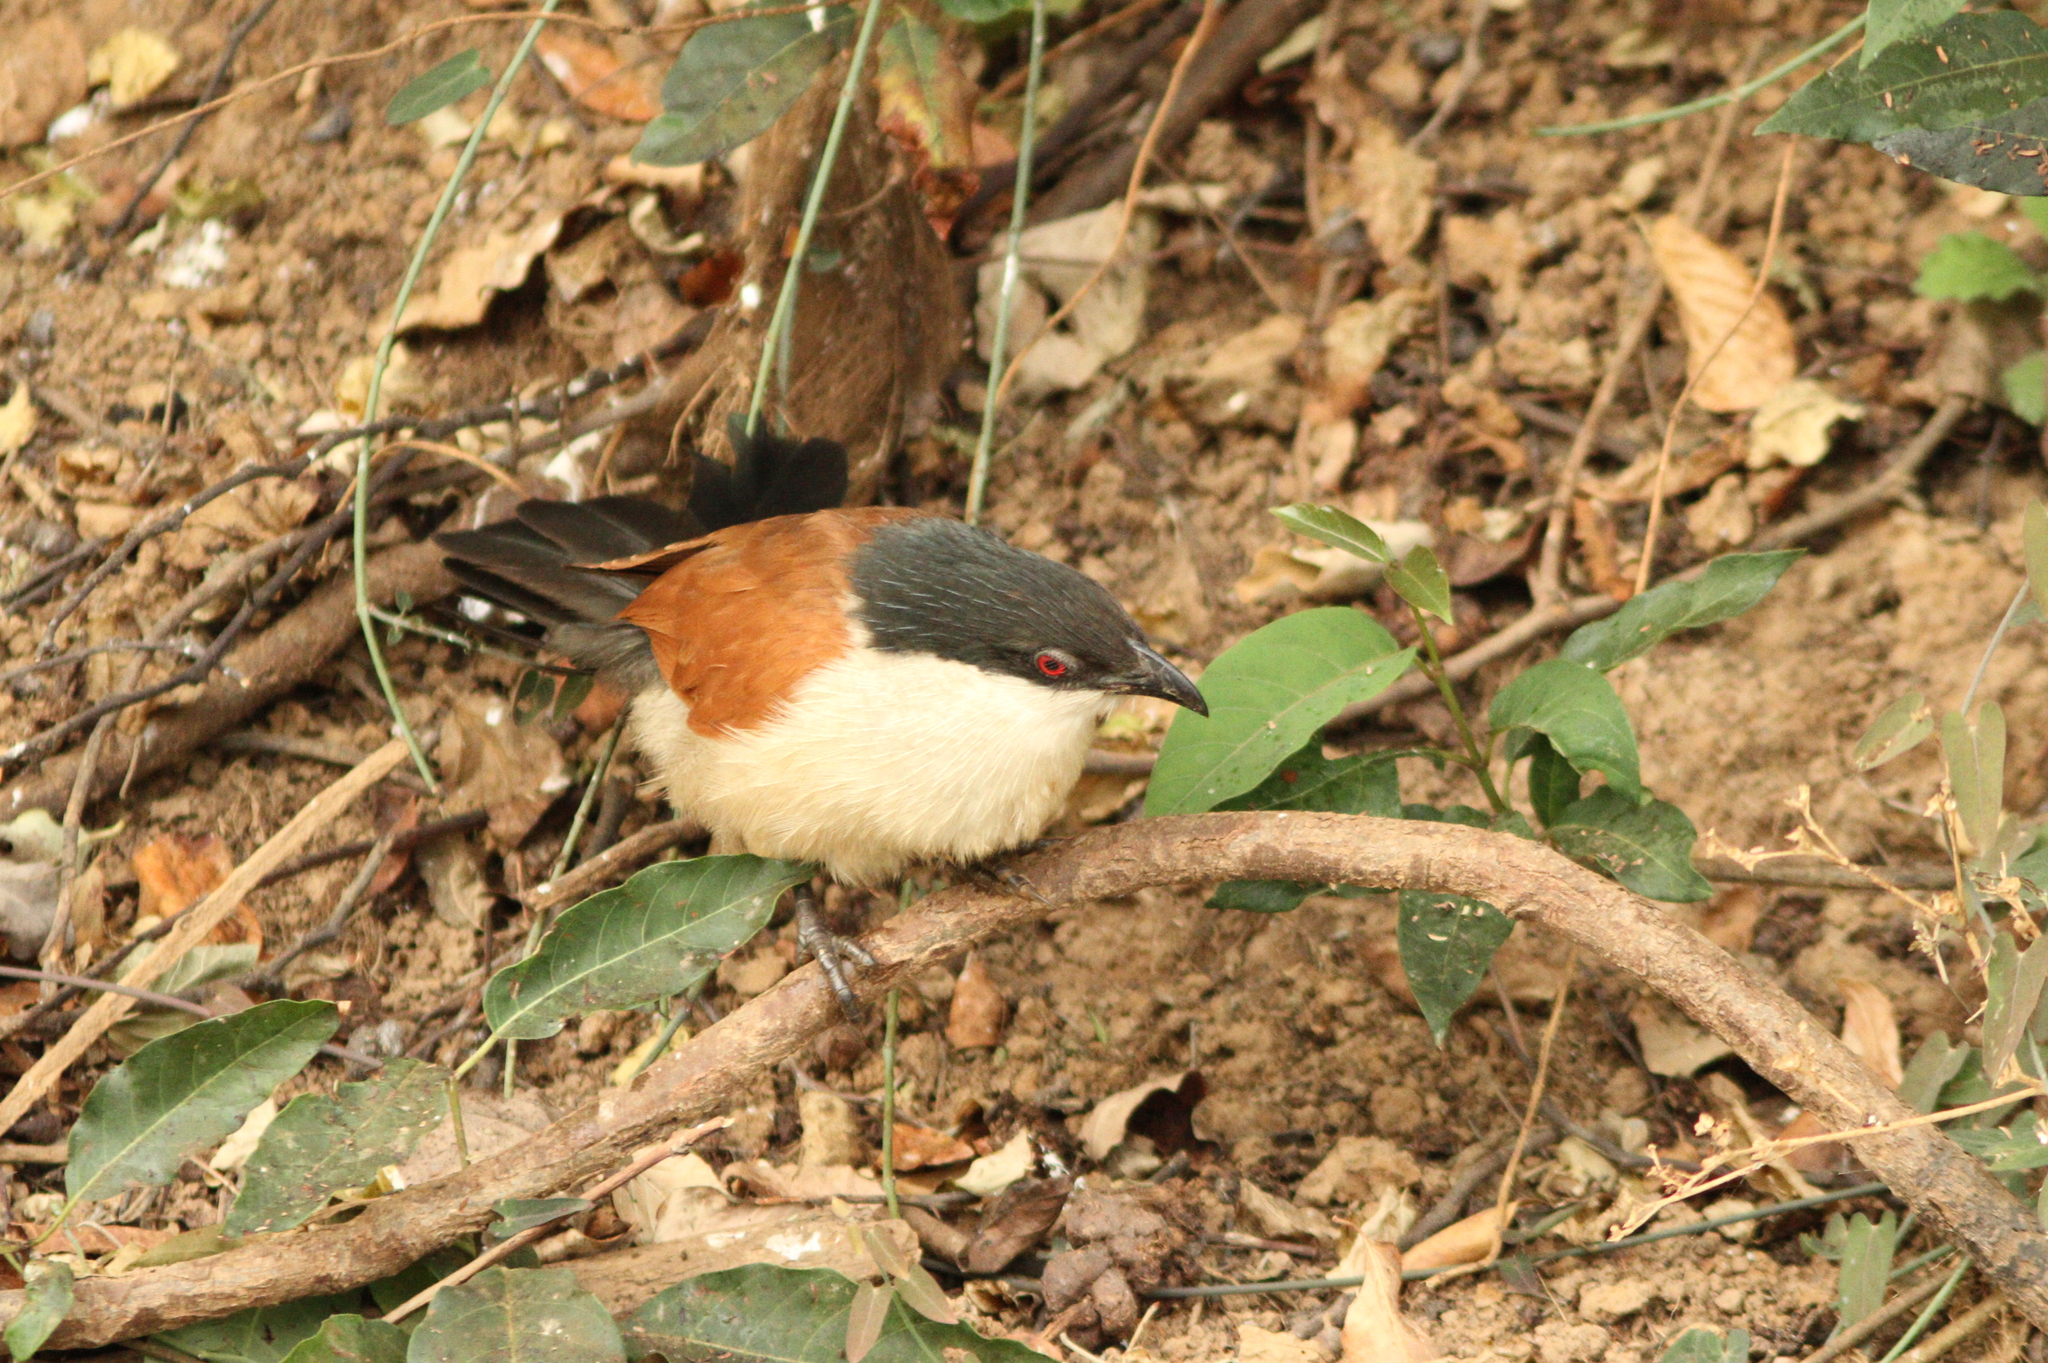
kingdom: Animalia
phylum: Chordata
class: Aves
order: Cuculiformes
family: Cuculidae
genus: Centropus
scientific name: Centropus senegalensis
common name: Senegal coucal
